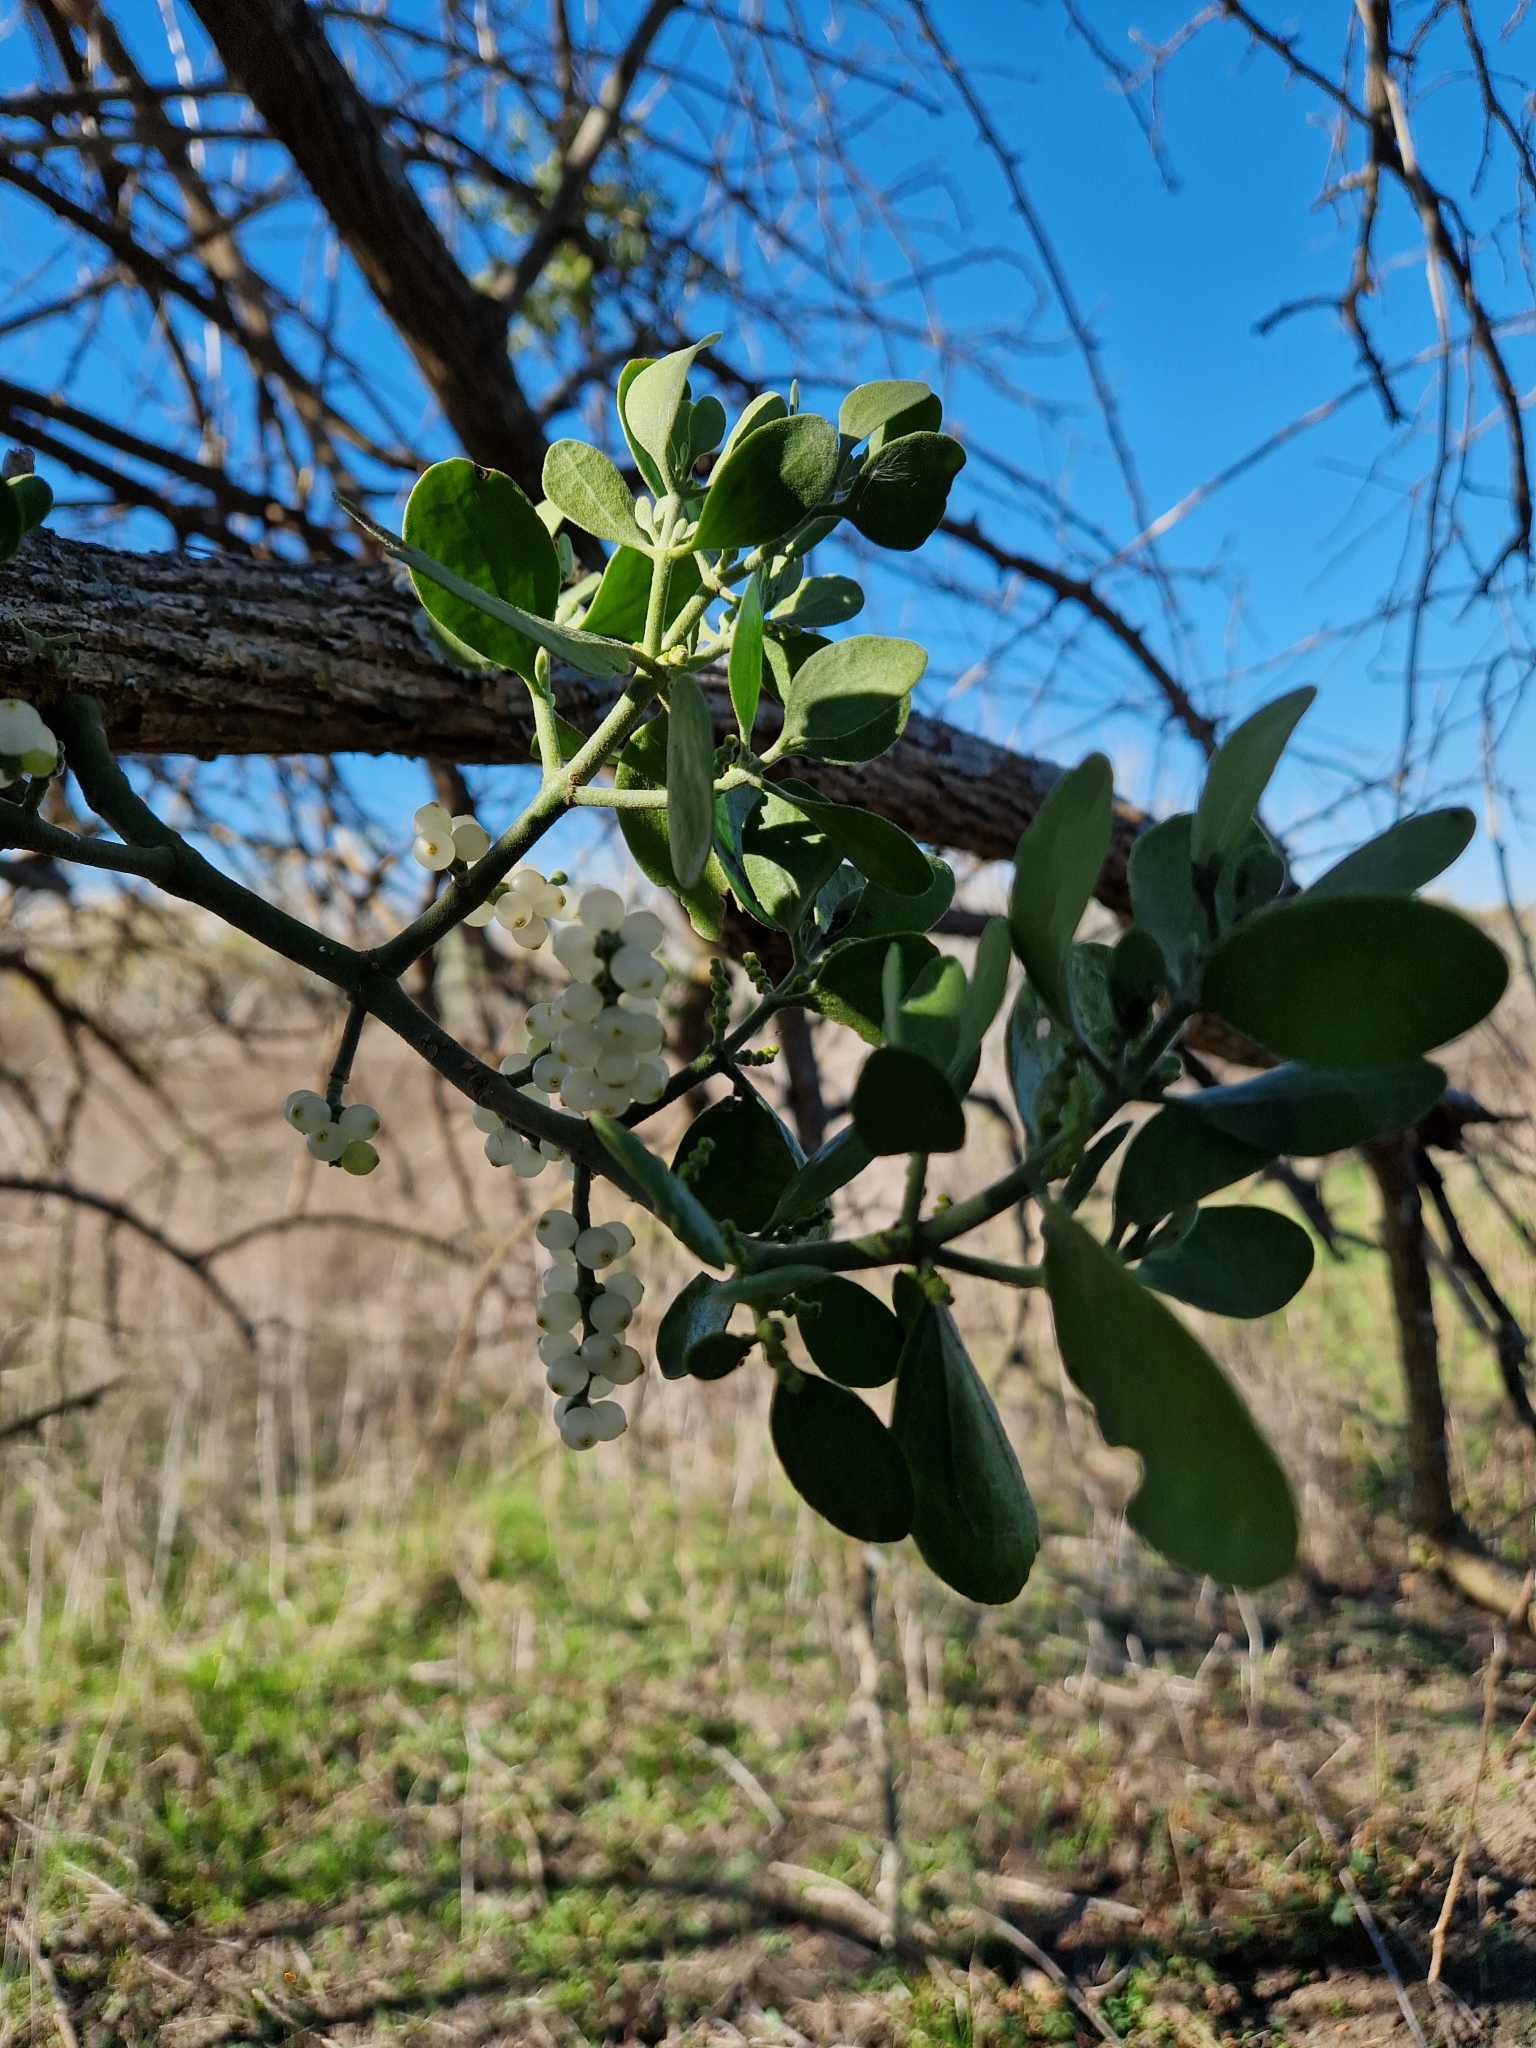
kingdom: Plantae
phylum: Tracheophyta
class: Magnoliopsida
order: Santalales
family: Viscaceae
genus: Phoradendron
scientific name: Phoradendron leucarpum
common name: Pacific mistletoe
